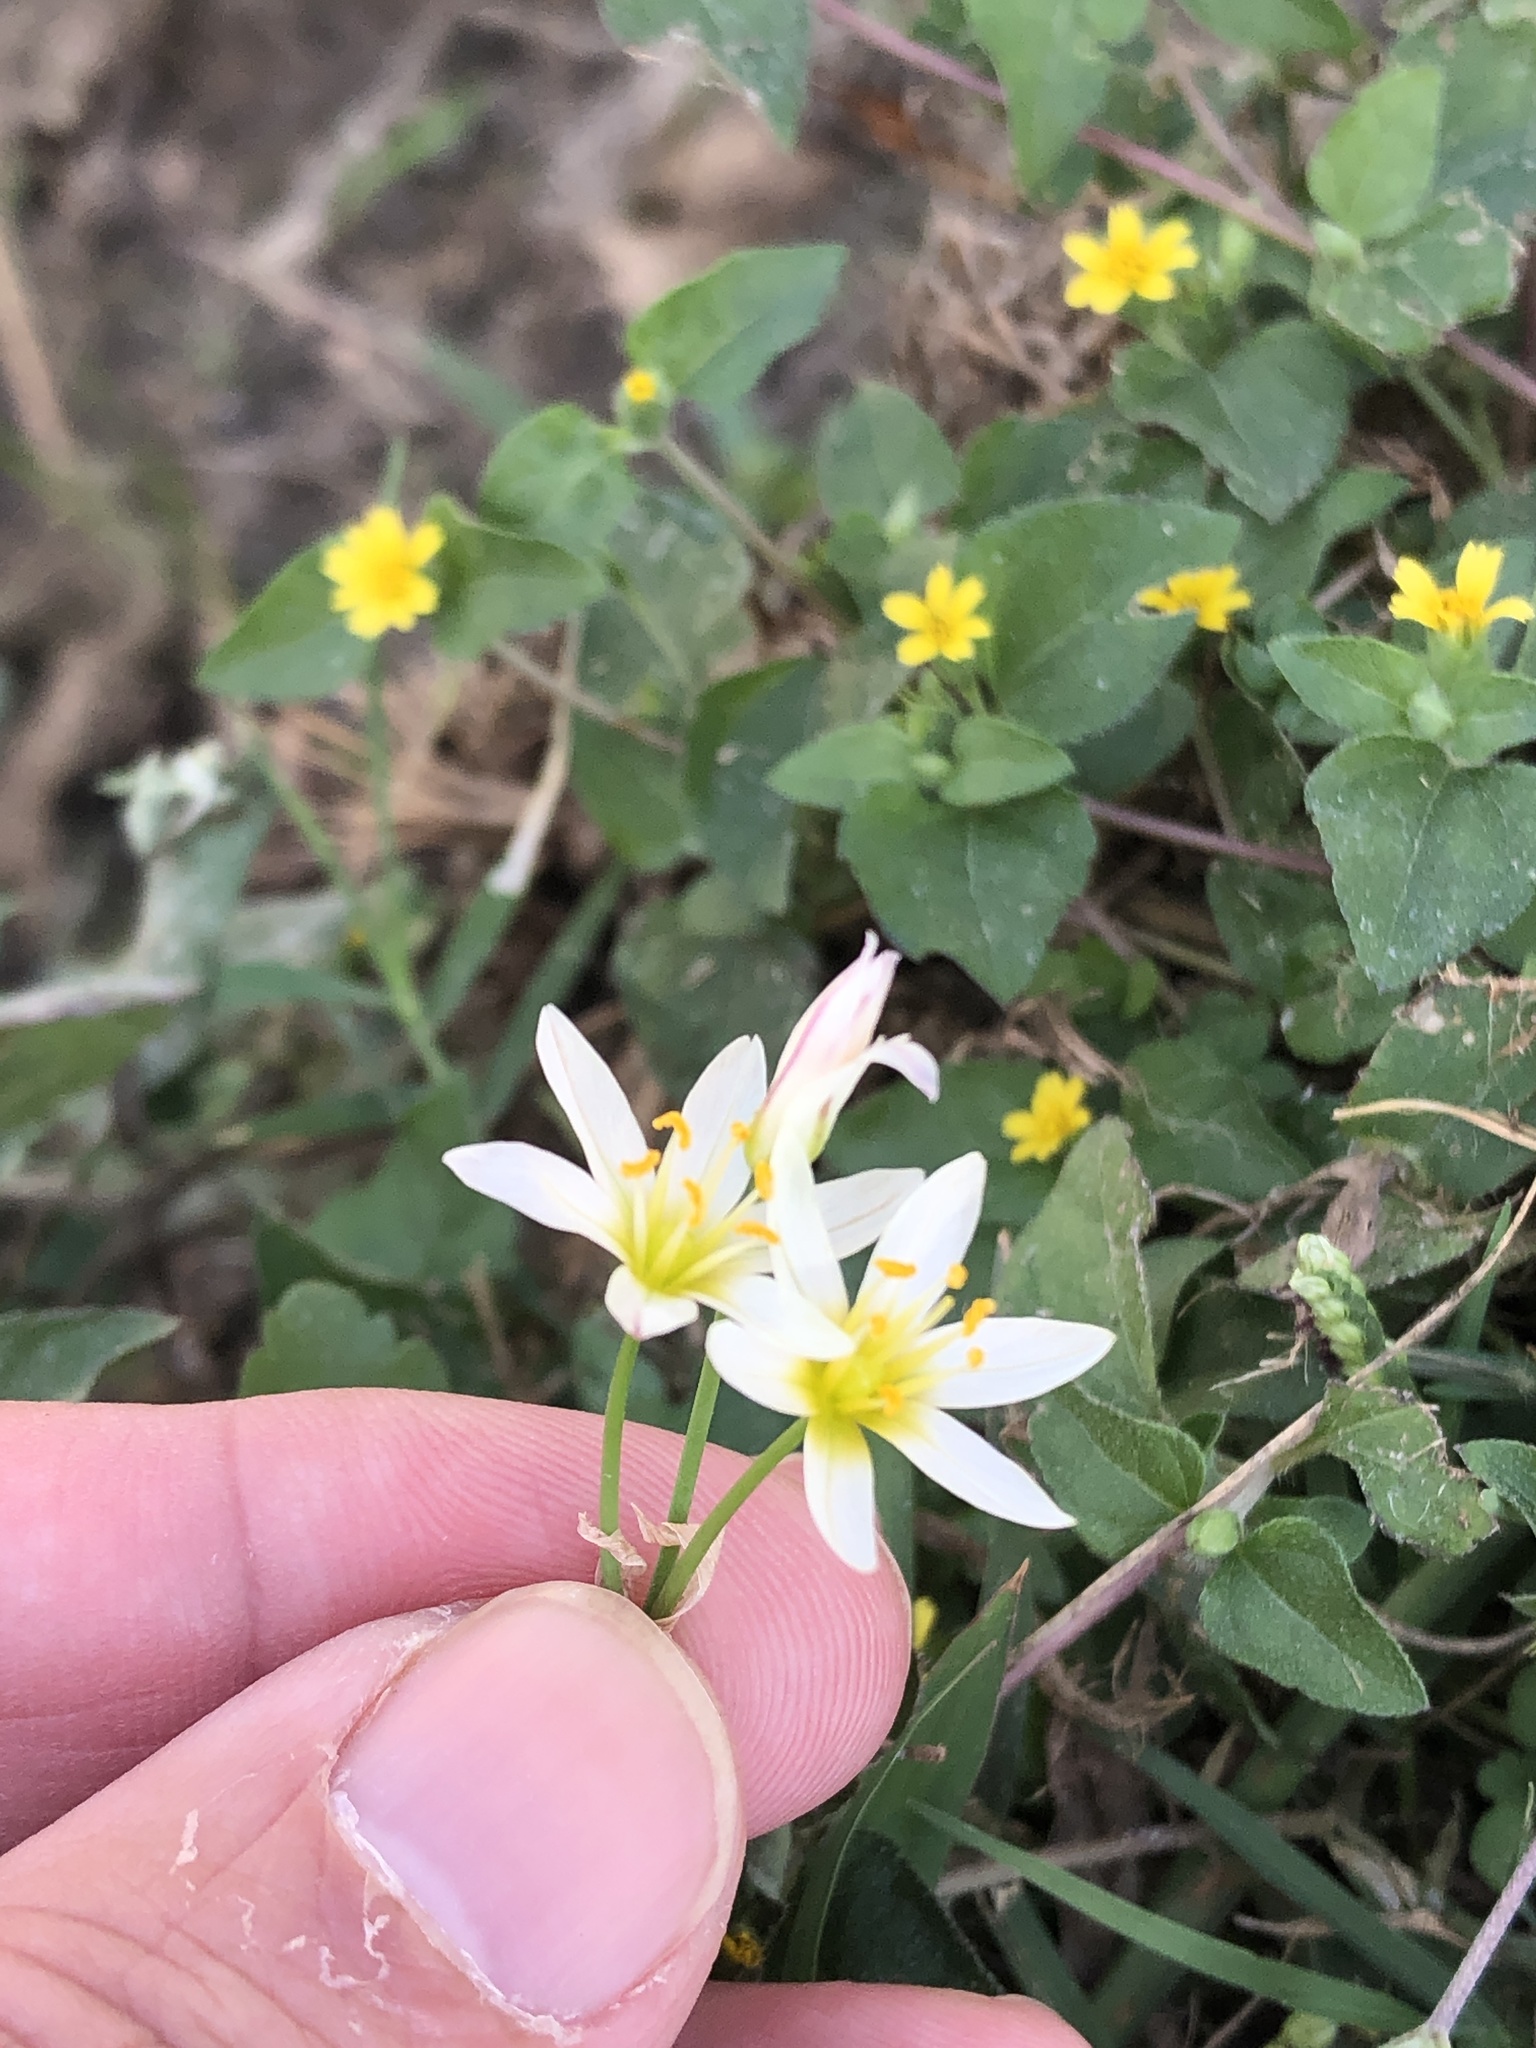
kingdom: Plantae
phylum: Tracheophyta
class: Liliopsida
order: Asparagales
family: Amaryllidaceae
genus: Nothoscordum
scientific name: Nothoscordum bivalve
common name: Crow-poison
